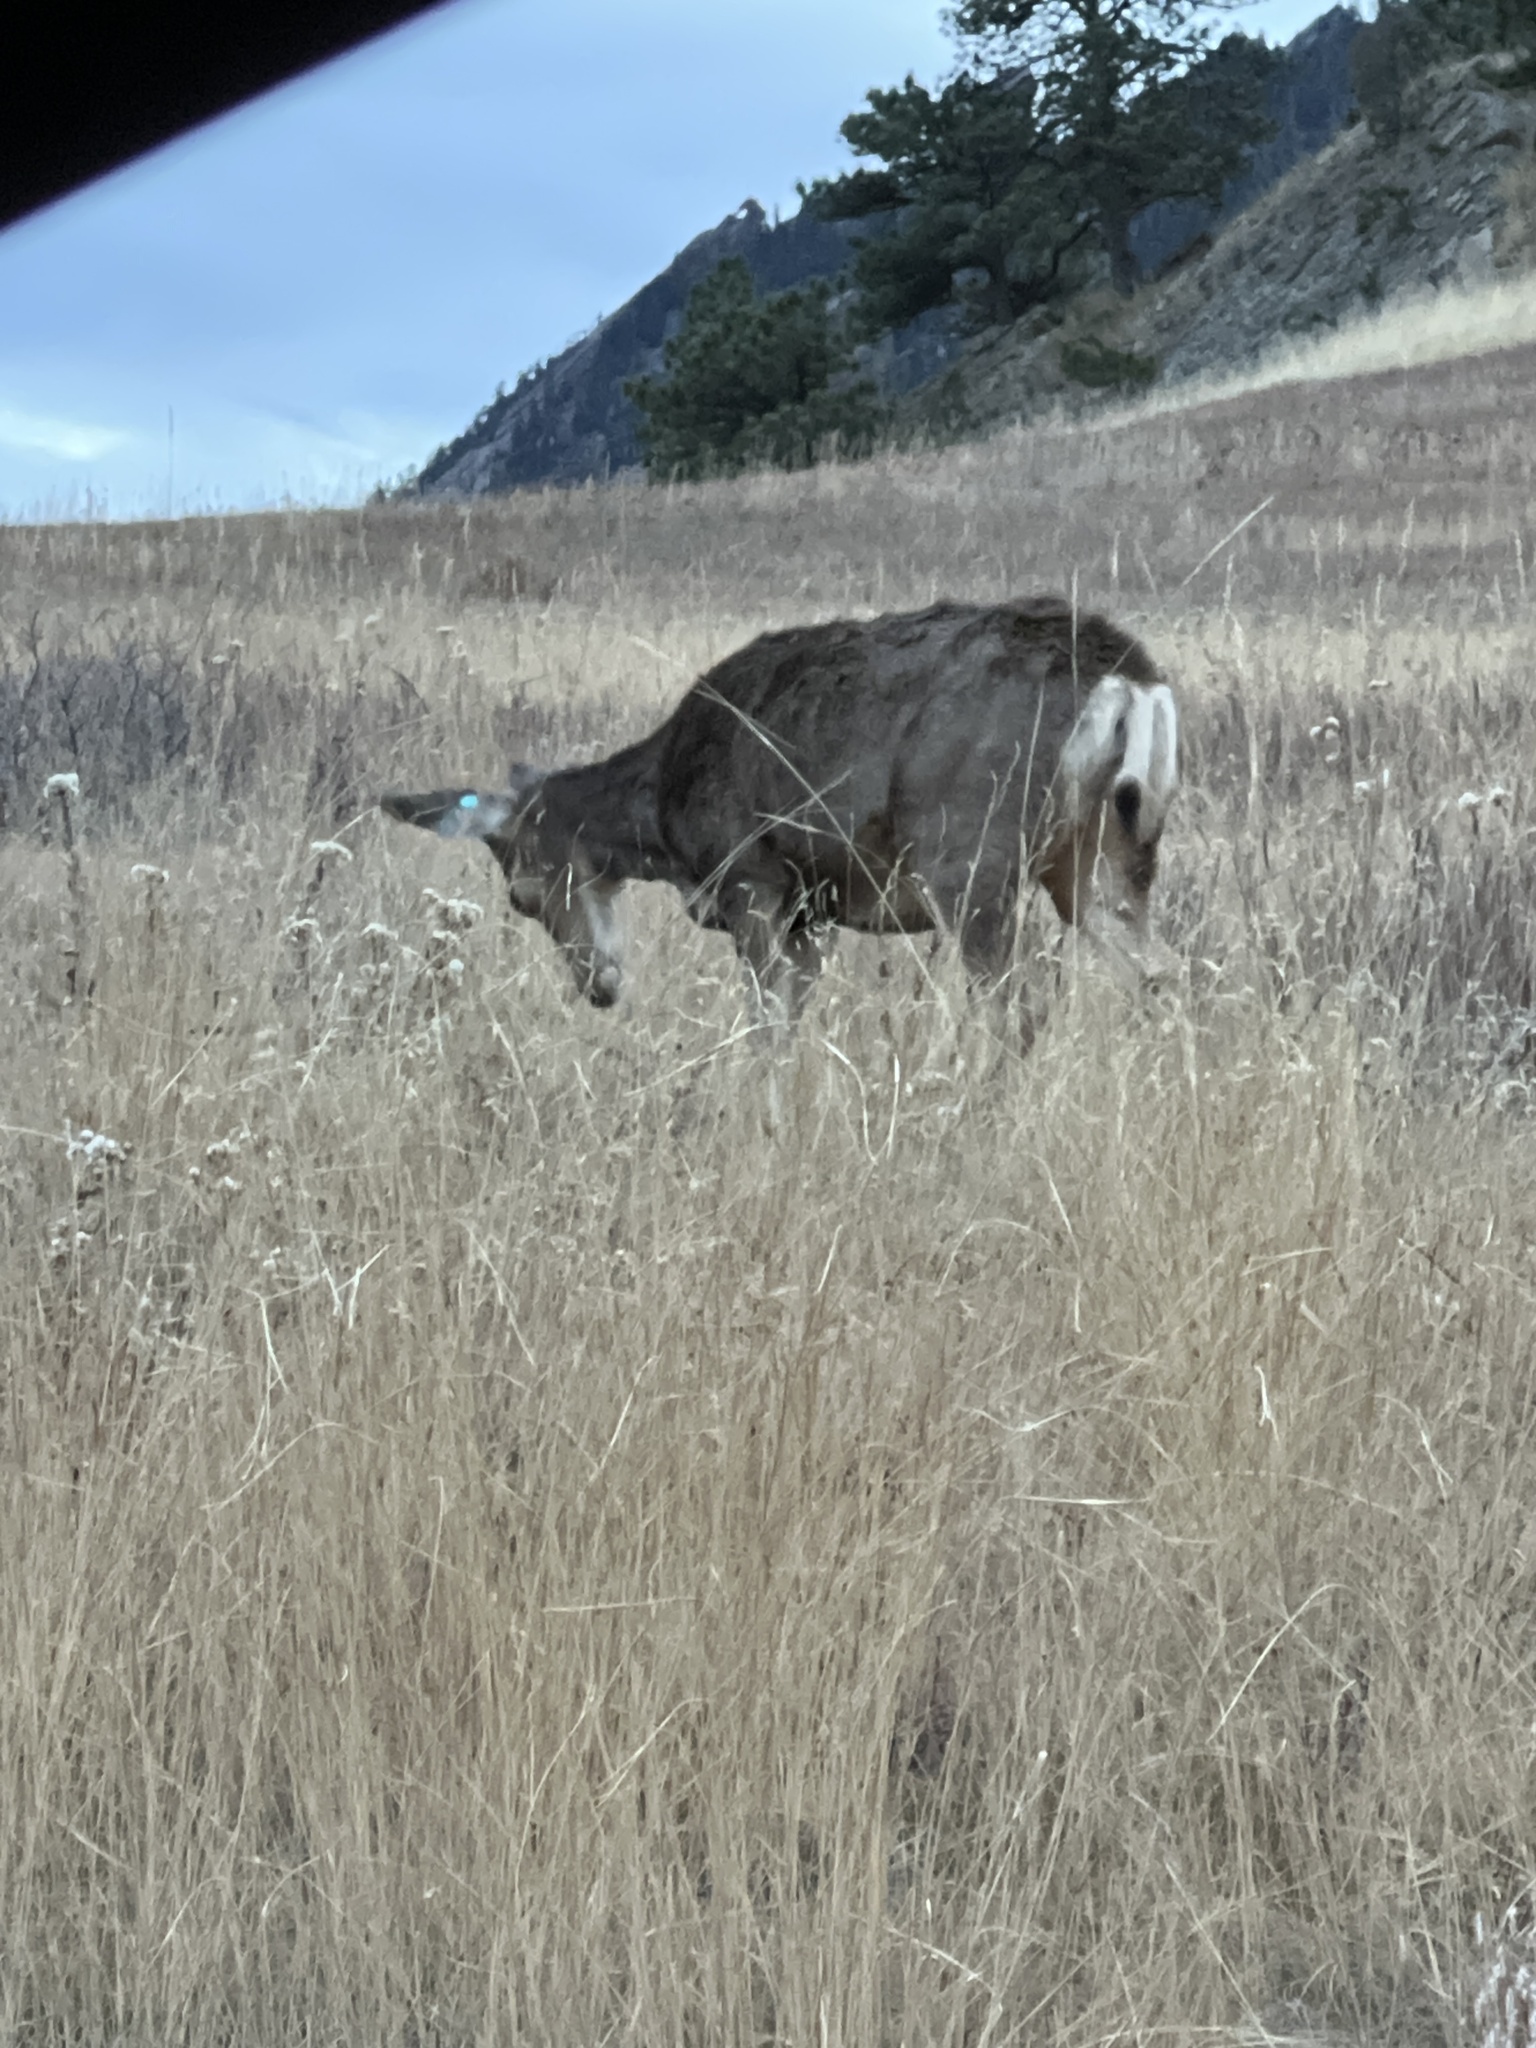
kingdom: Animalia
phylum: Chordata
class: Mammalia
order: Artiodactyla
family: Cervidae
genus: Odocoileus
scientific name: Odocoileus hemionus
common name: Mule deer
